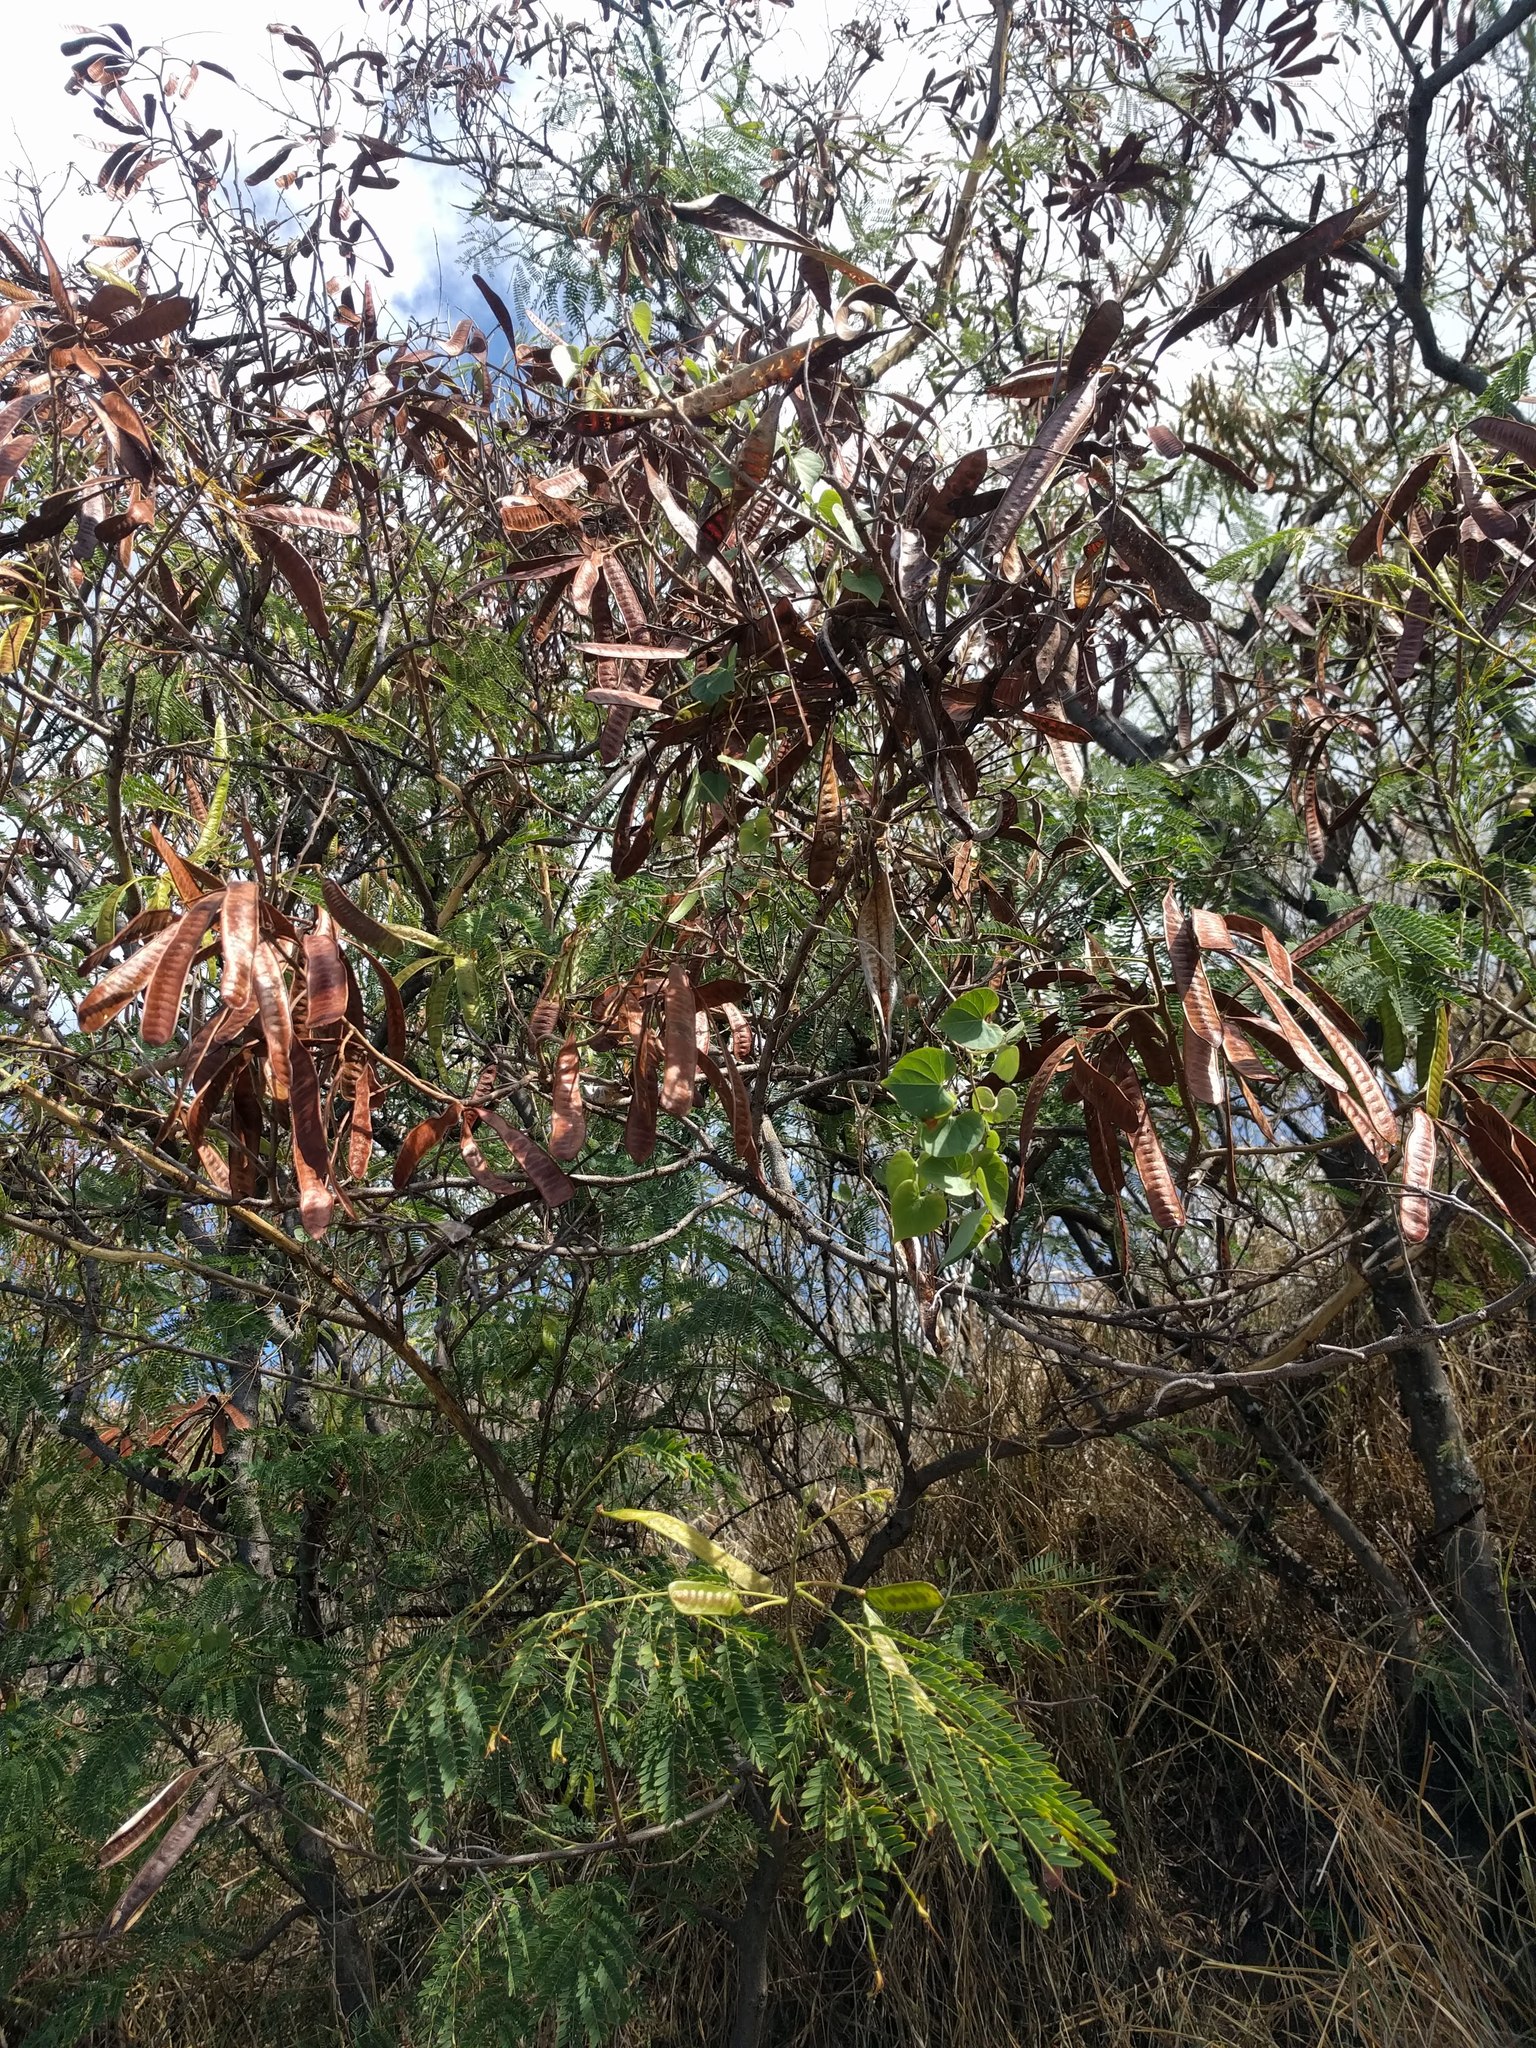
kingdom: Plantae
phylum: Tracheophyta
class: Magnoliopsida
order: Fabales
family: Fabaceae
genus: Leucaena
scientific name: Leucaena leucocephala
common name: White leadtree
